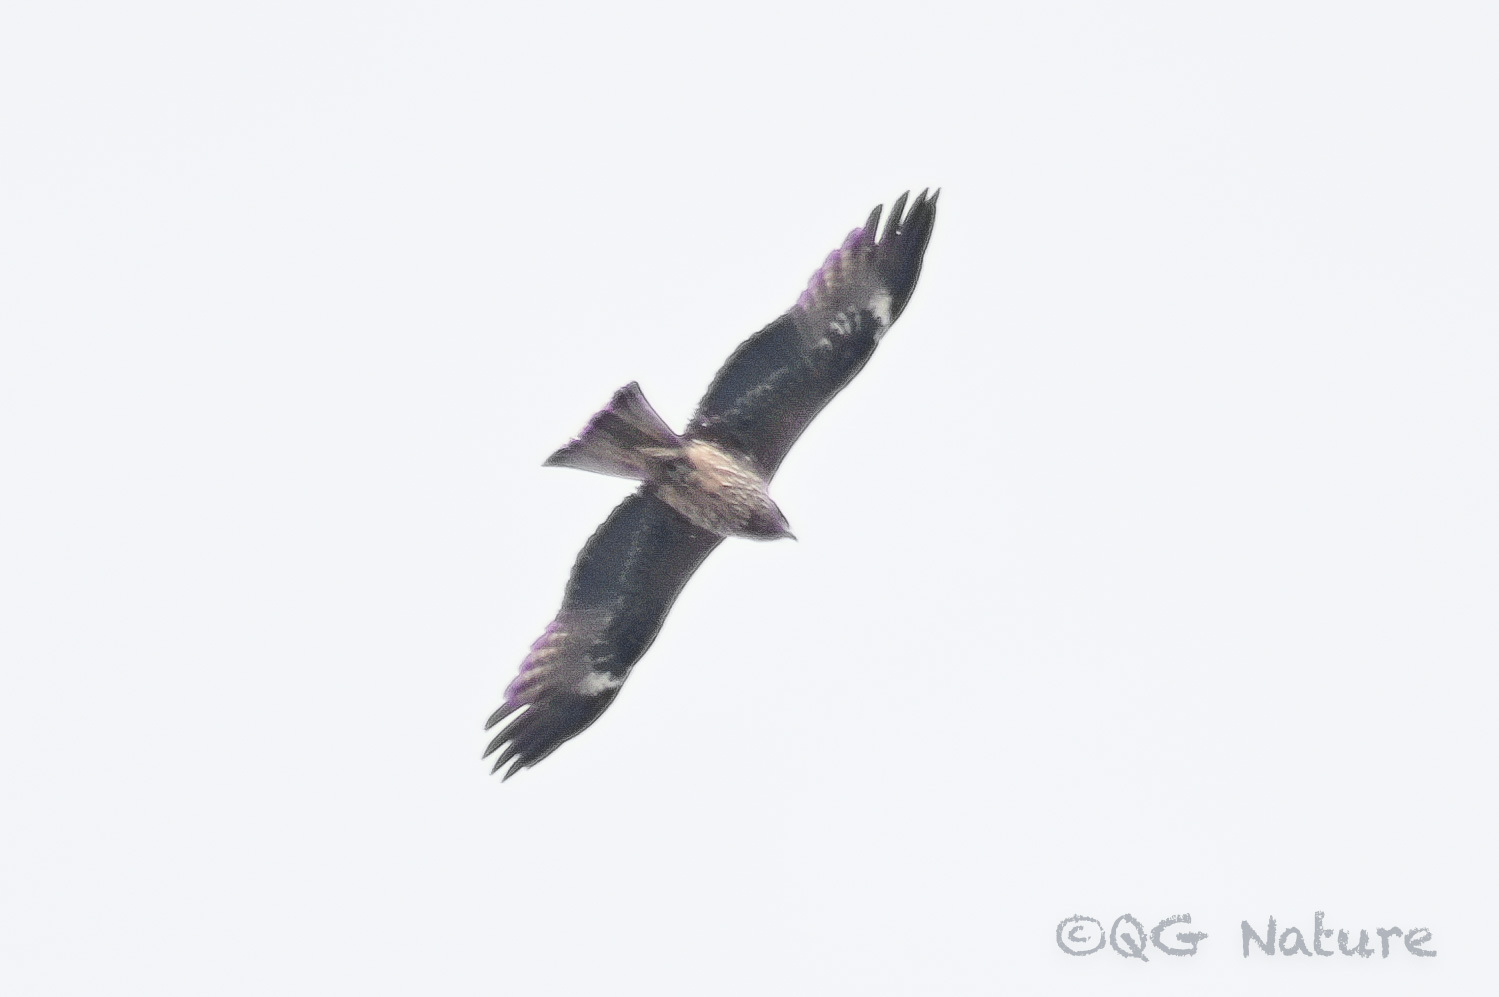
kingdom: Animalia
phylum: Chordata
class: Aves
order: Accipitriformes
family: Accipitridae
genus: Milvus
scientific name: Milvus migrans
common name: Black kite
